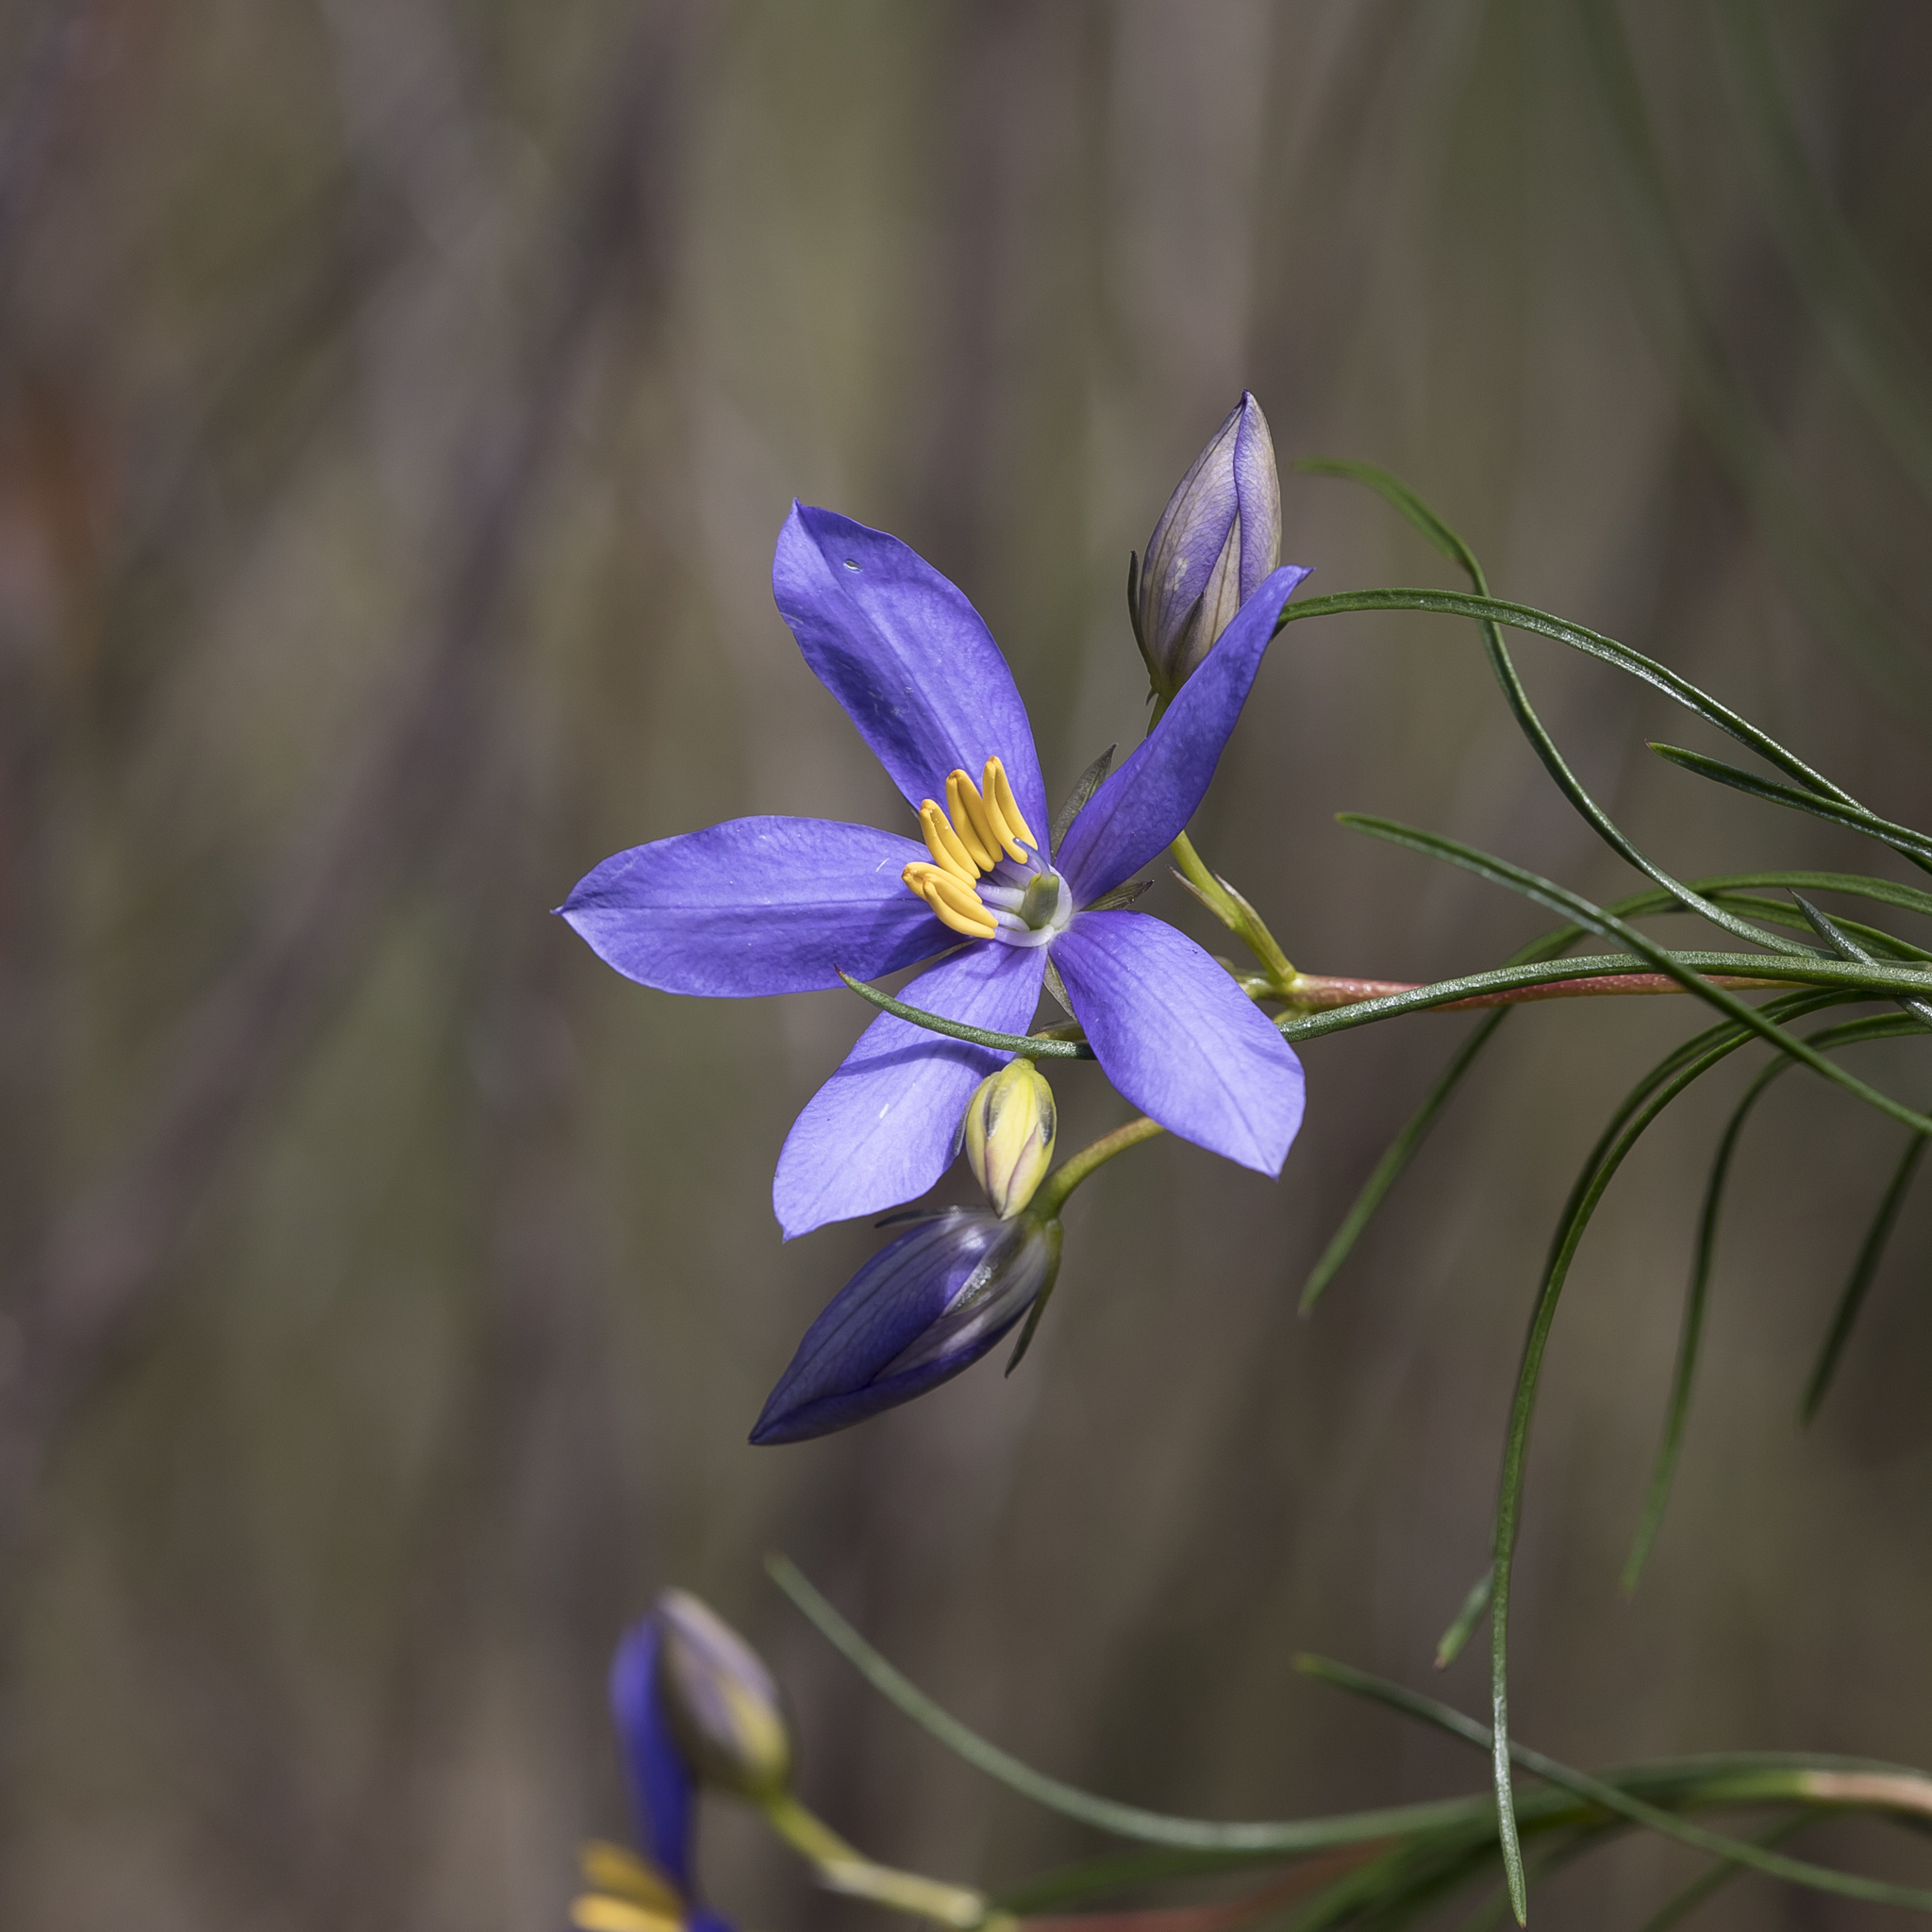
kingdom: Plantae
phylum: Tracheophyta
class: Magnoliopsida
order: Apiales
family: Pittosporaceae
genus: Cheiranthera
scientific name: Cheiranthera alternifolia
